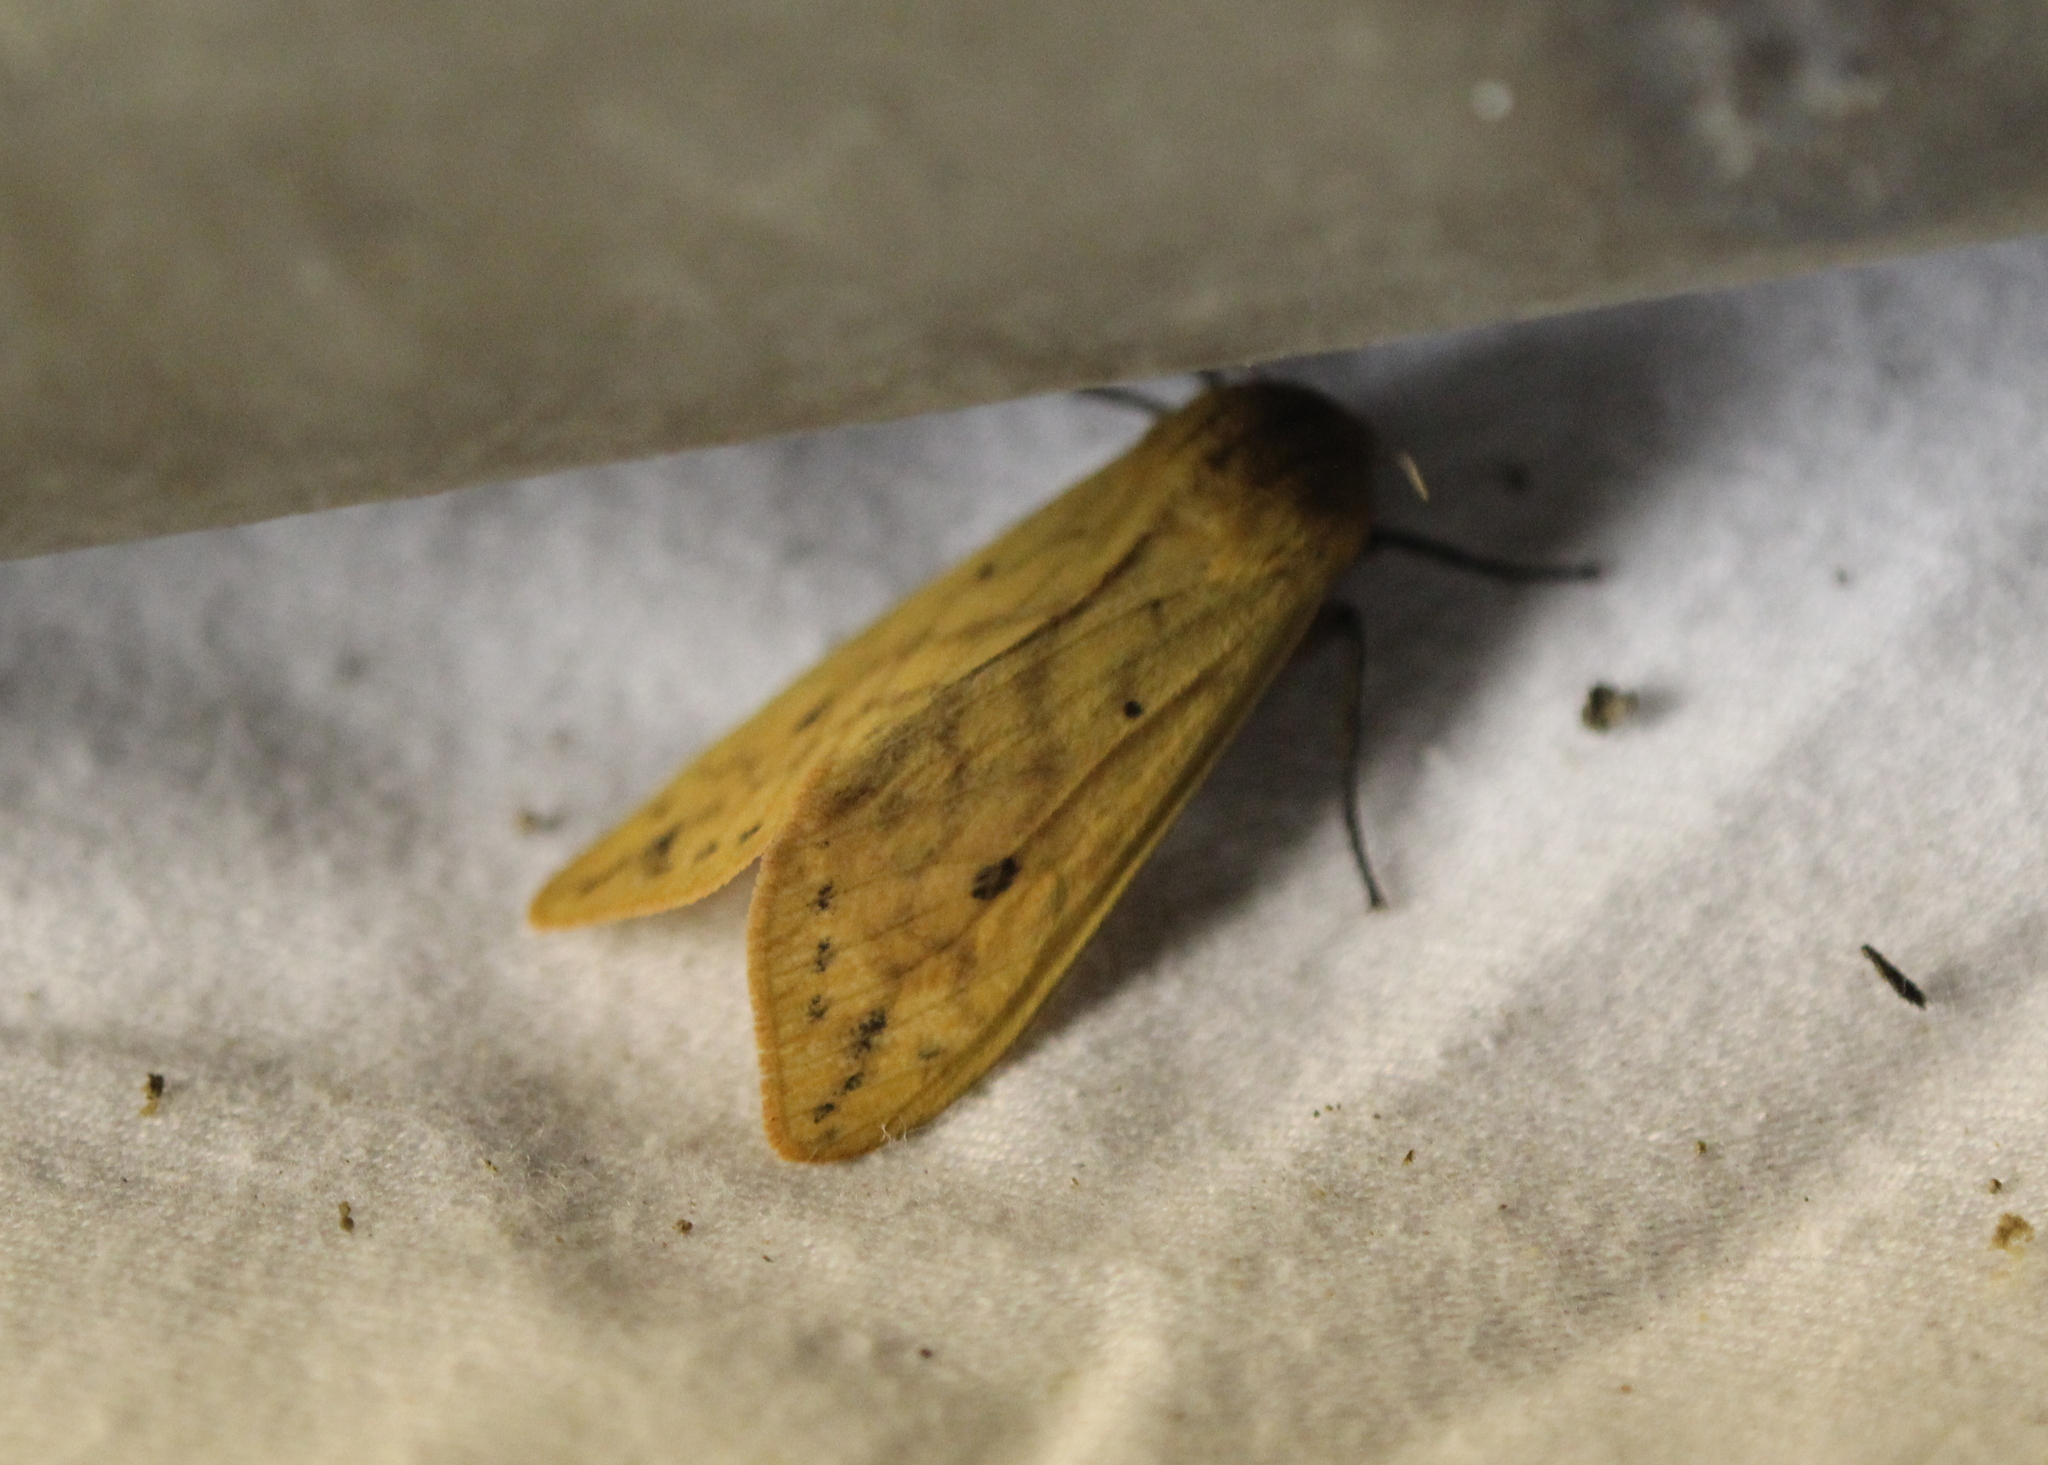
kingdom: Animalia
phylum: Arthropoda
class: Insecta
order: Lepidoptera
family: Erebidae
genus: Pyrrharctia
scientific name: Pyrrharctia isabella
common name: Isabella tiger moth
